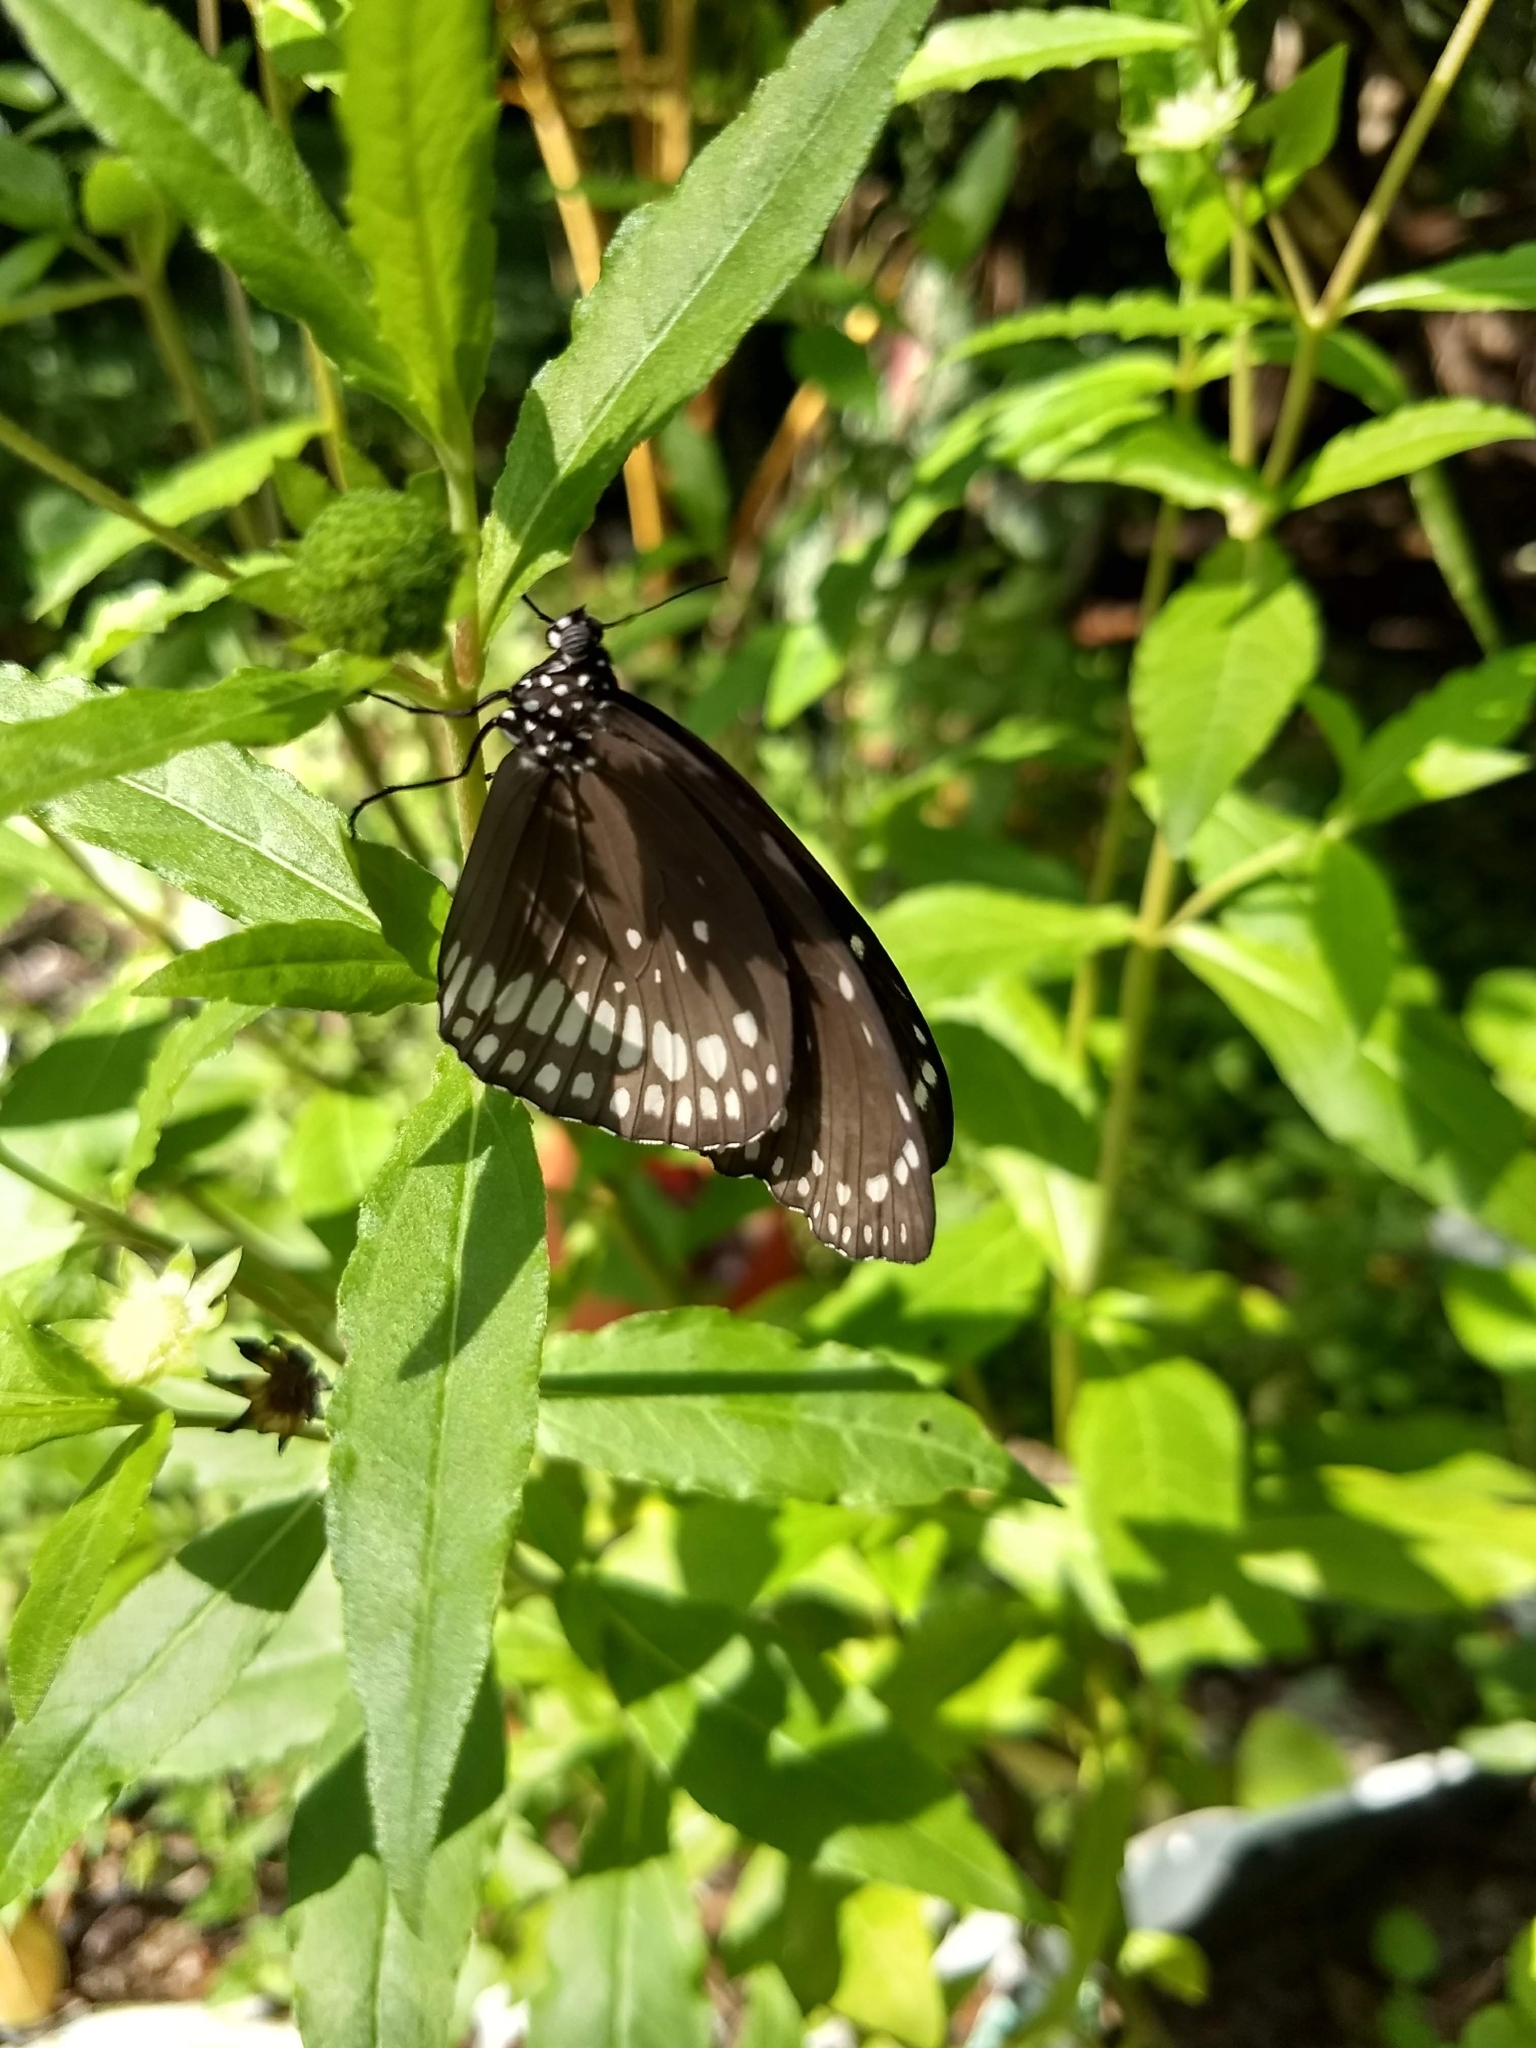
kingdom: Animalia
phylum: Arthropoda
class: Insecta
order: Lepidoptera
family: Nymphalidae
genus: Euploea
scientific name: Euploea core
